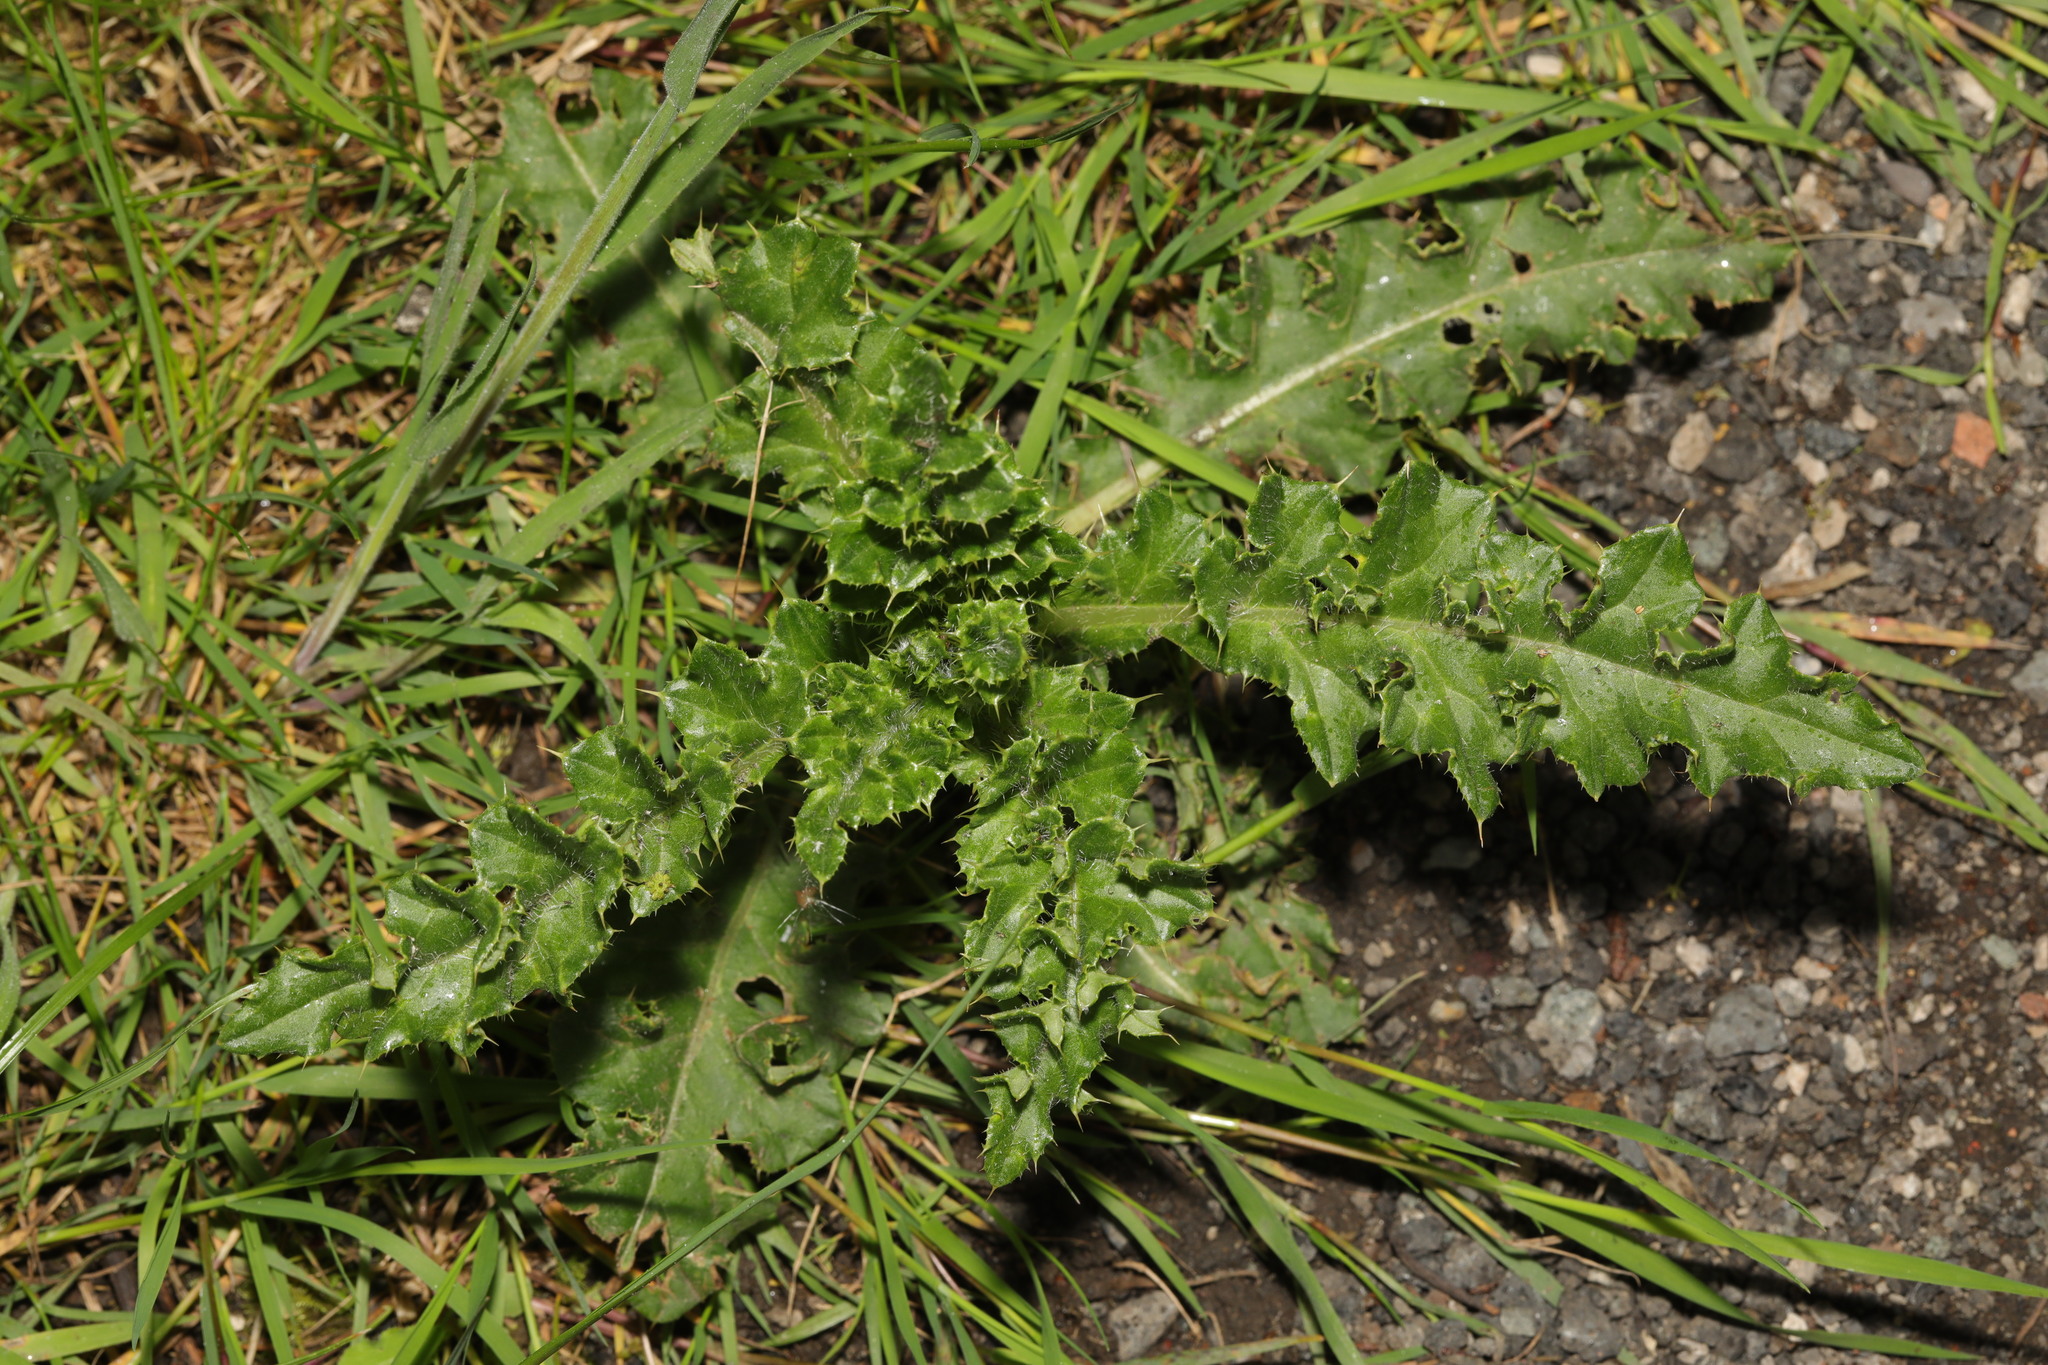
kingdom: Plantae
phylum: Tracheophyta
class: Magnoliopsida
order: Asterales
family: Asteraceae
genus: Cirsium
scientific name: Cirsium arvense
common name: Creeping thistle
